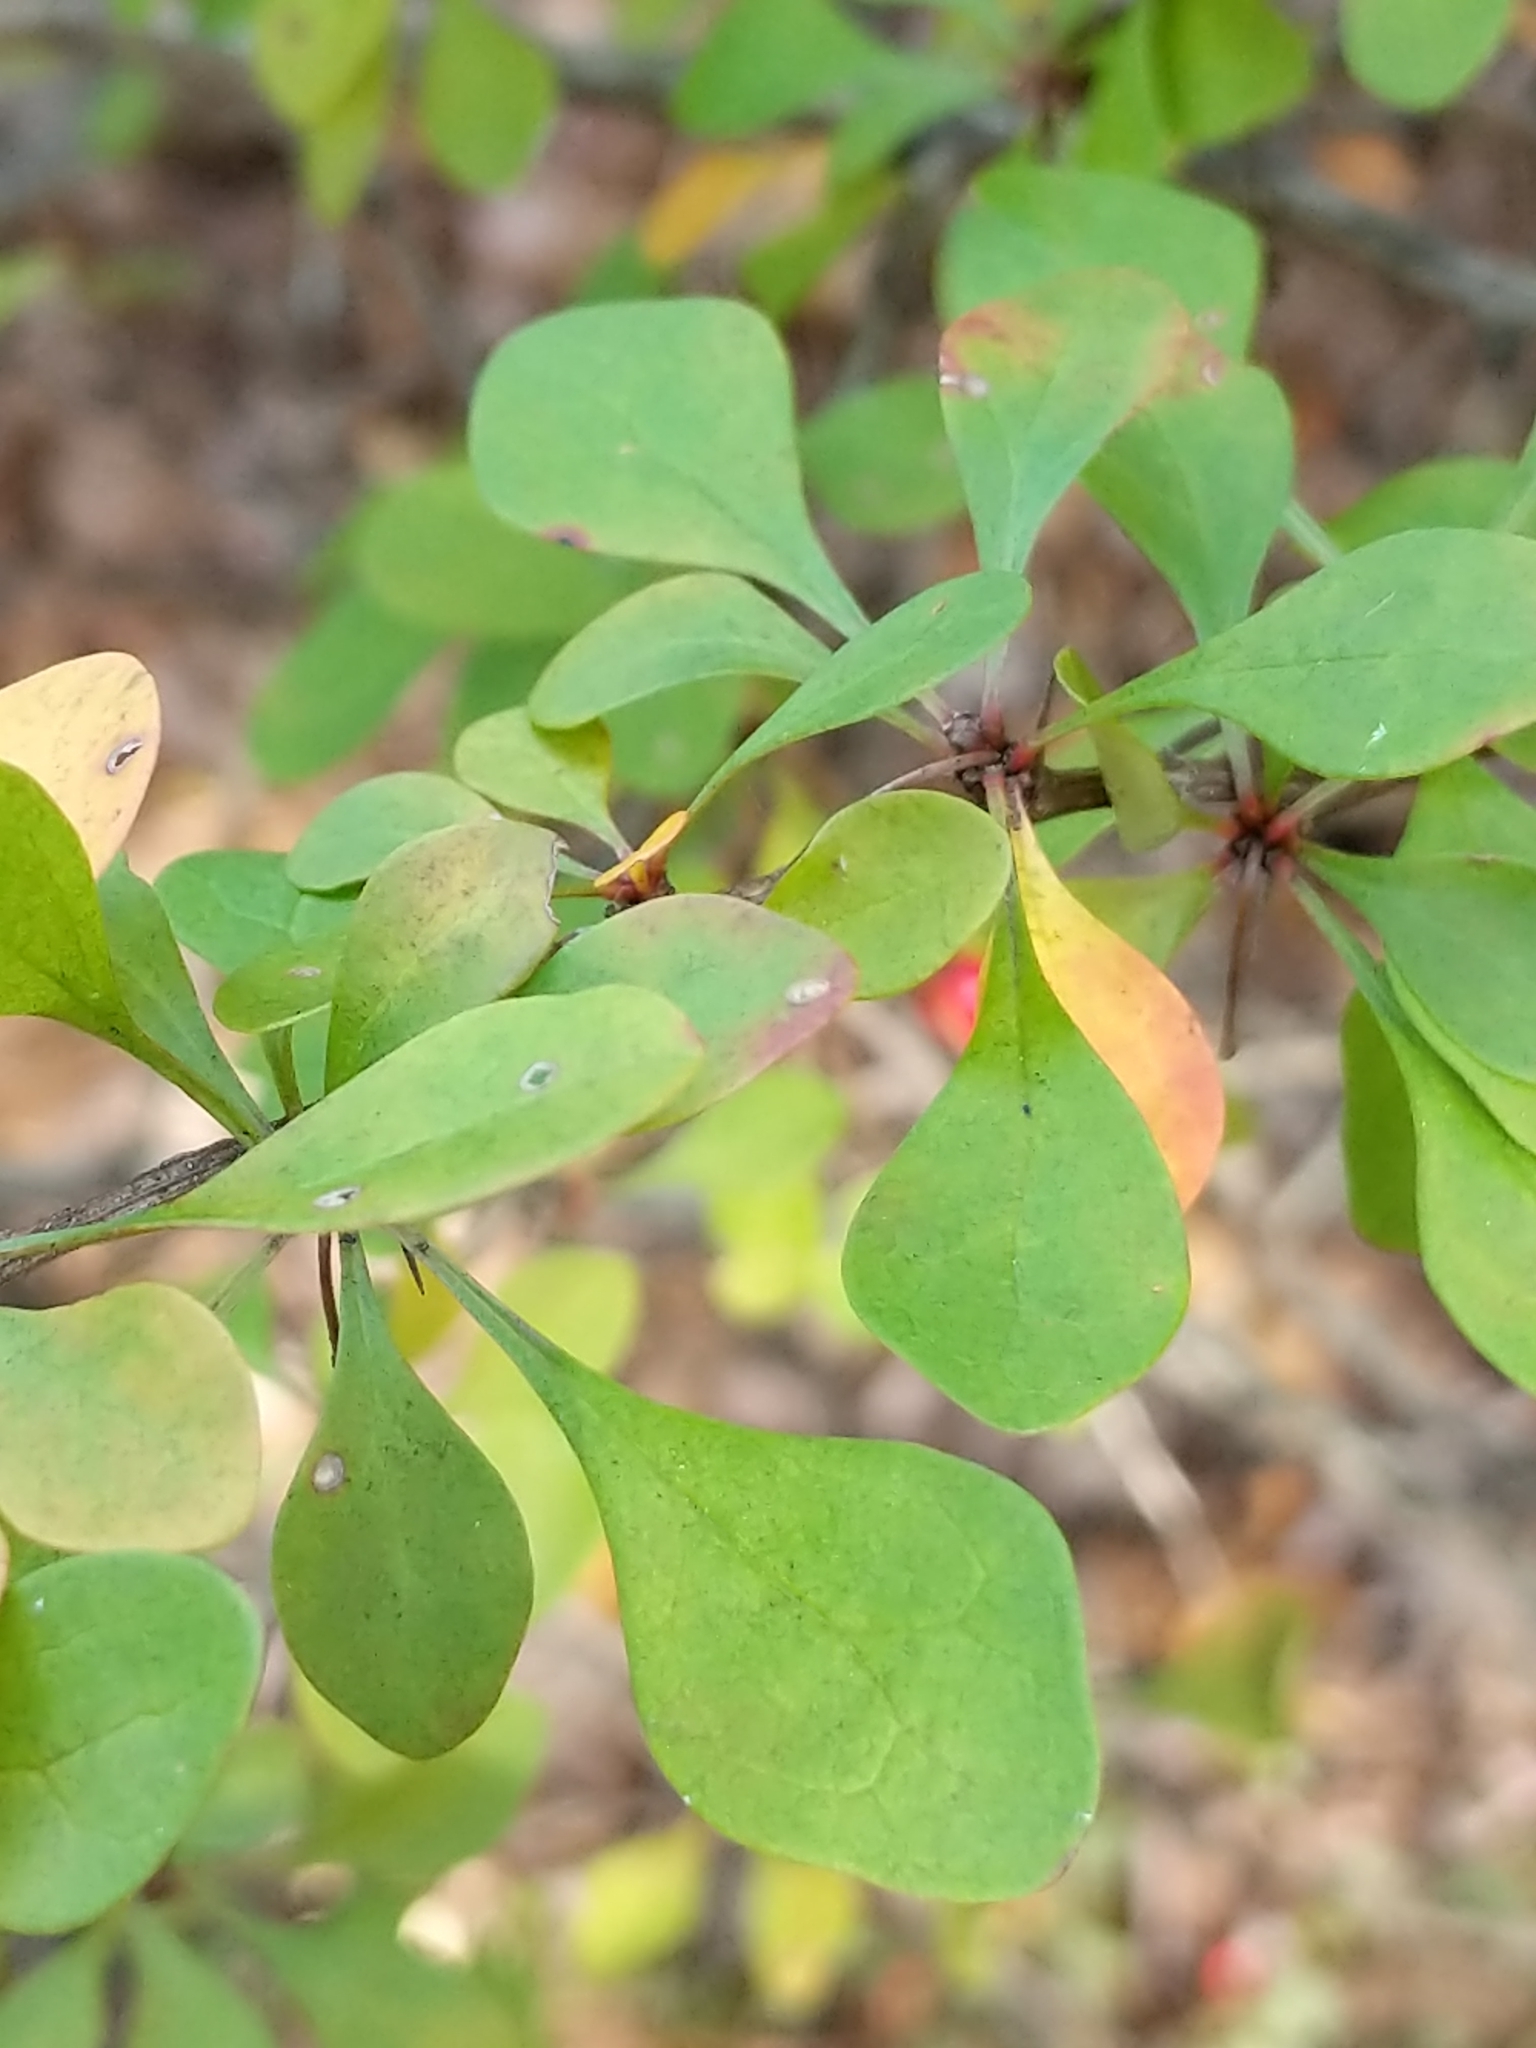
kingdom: Plantae
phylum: Tracheophyta
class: Magnoliopsida
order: Ranunculales
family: Berberidaceae
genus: Berberis
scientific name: Berberis thunbergii
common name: Japanese barberry
